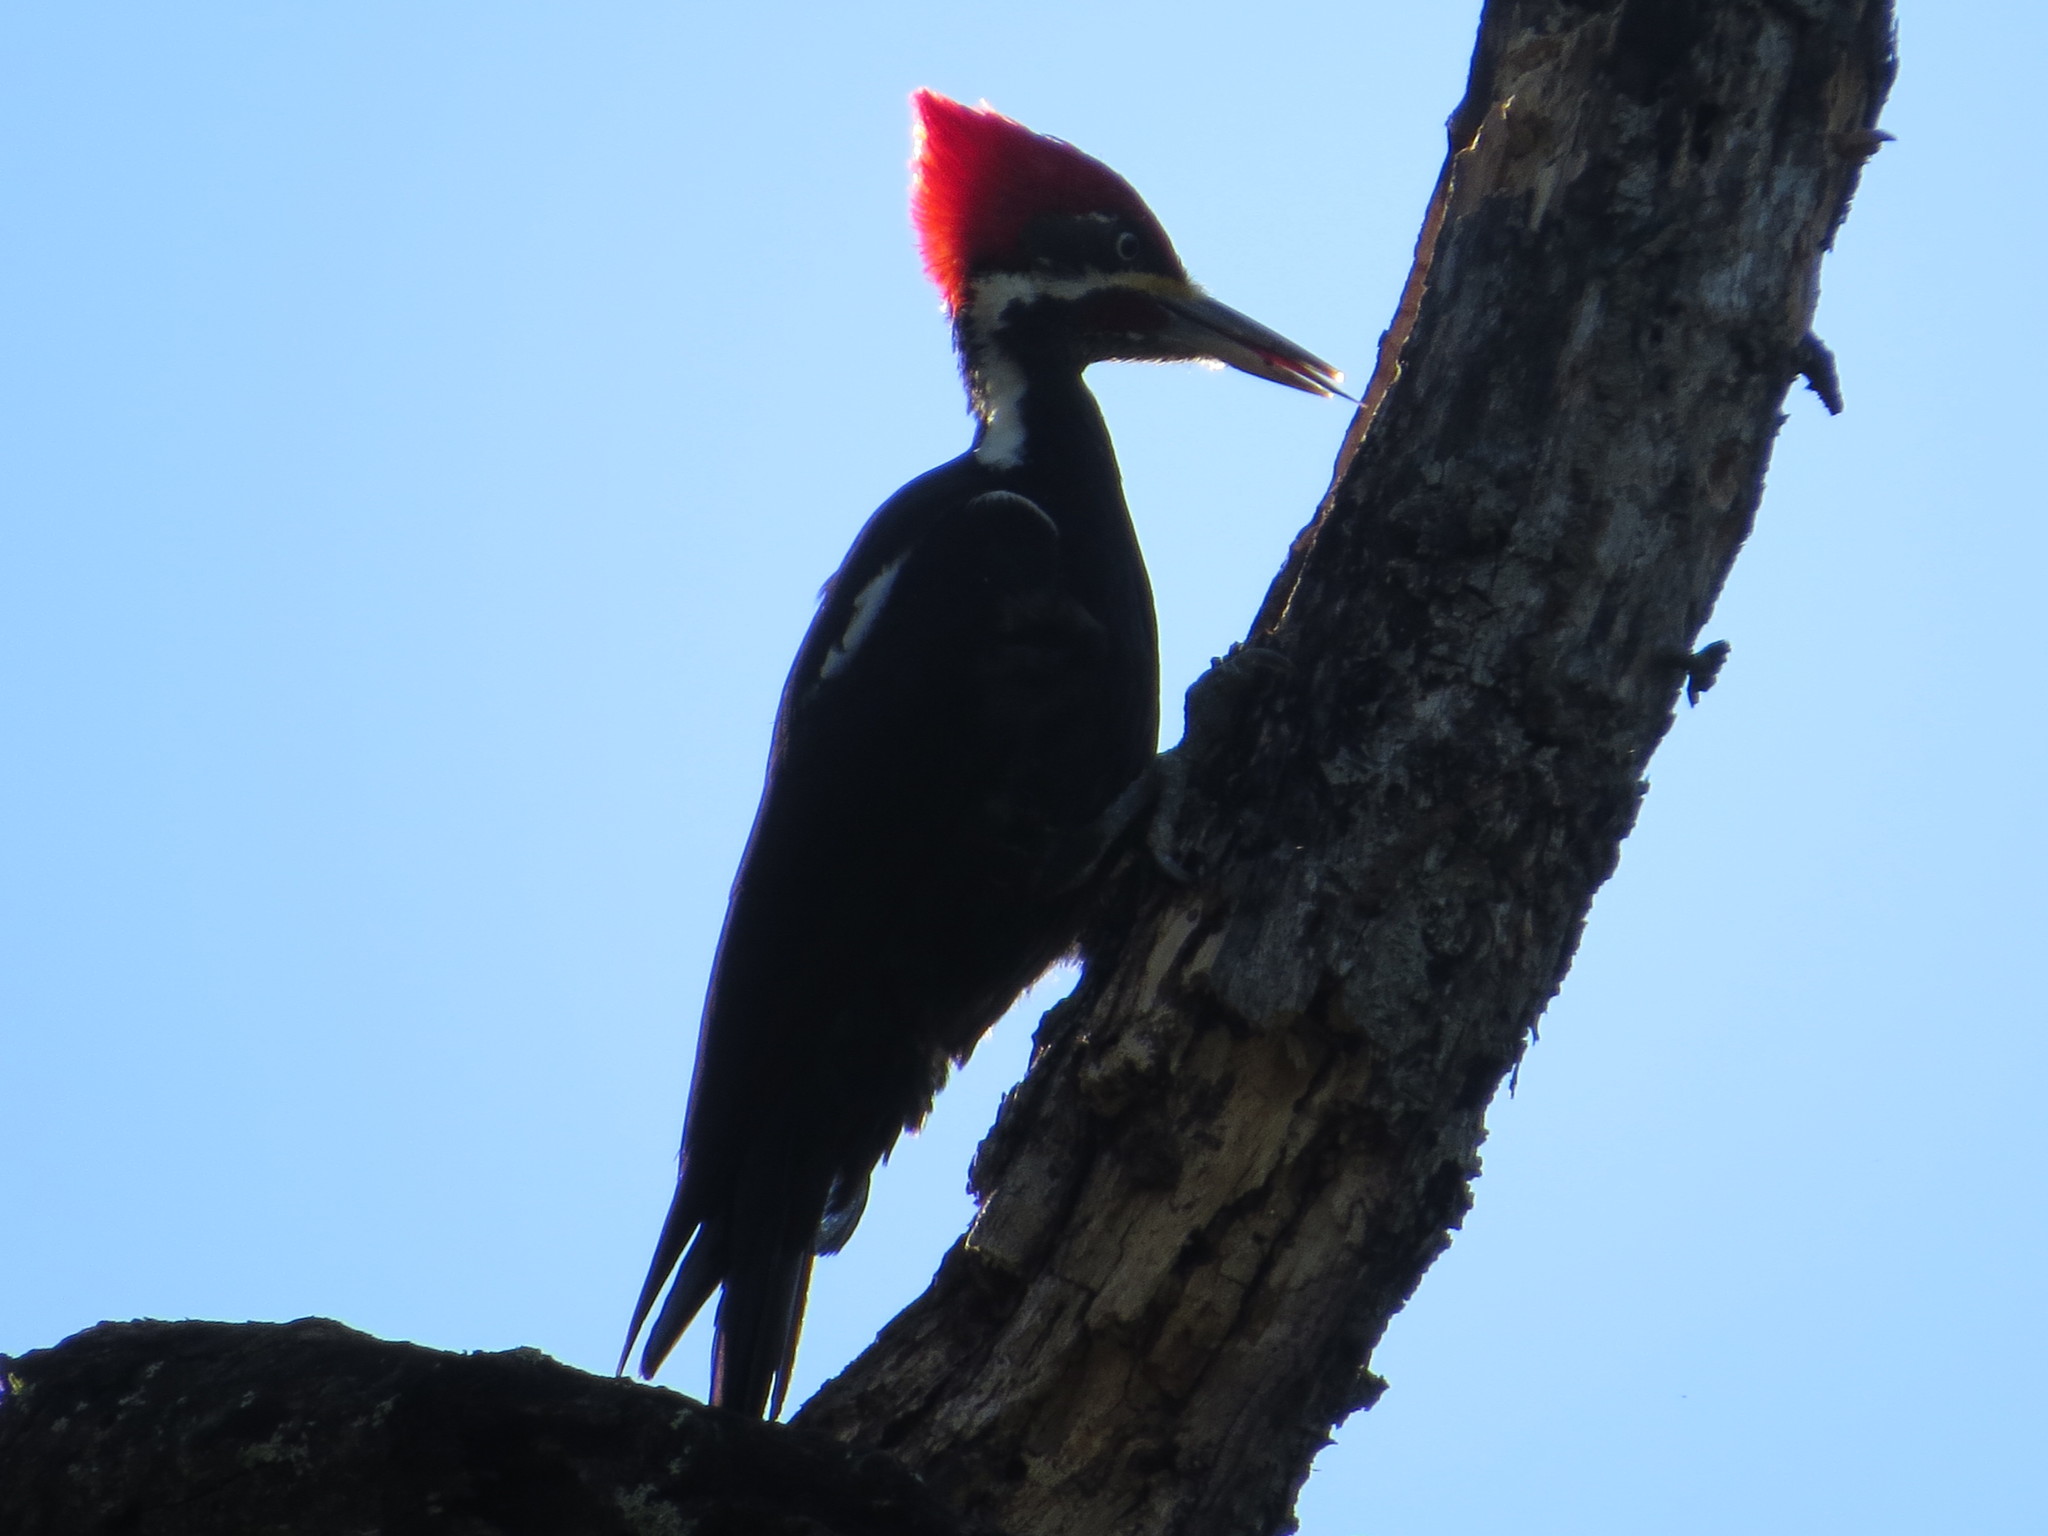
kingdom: Animalia
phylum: Chordata
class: Aves
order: Piciformes
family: Picidae
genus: Dryocopus
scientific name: Dryocopus schulzii
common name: Black-bodied woodpecker
